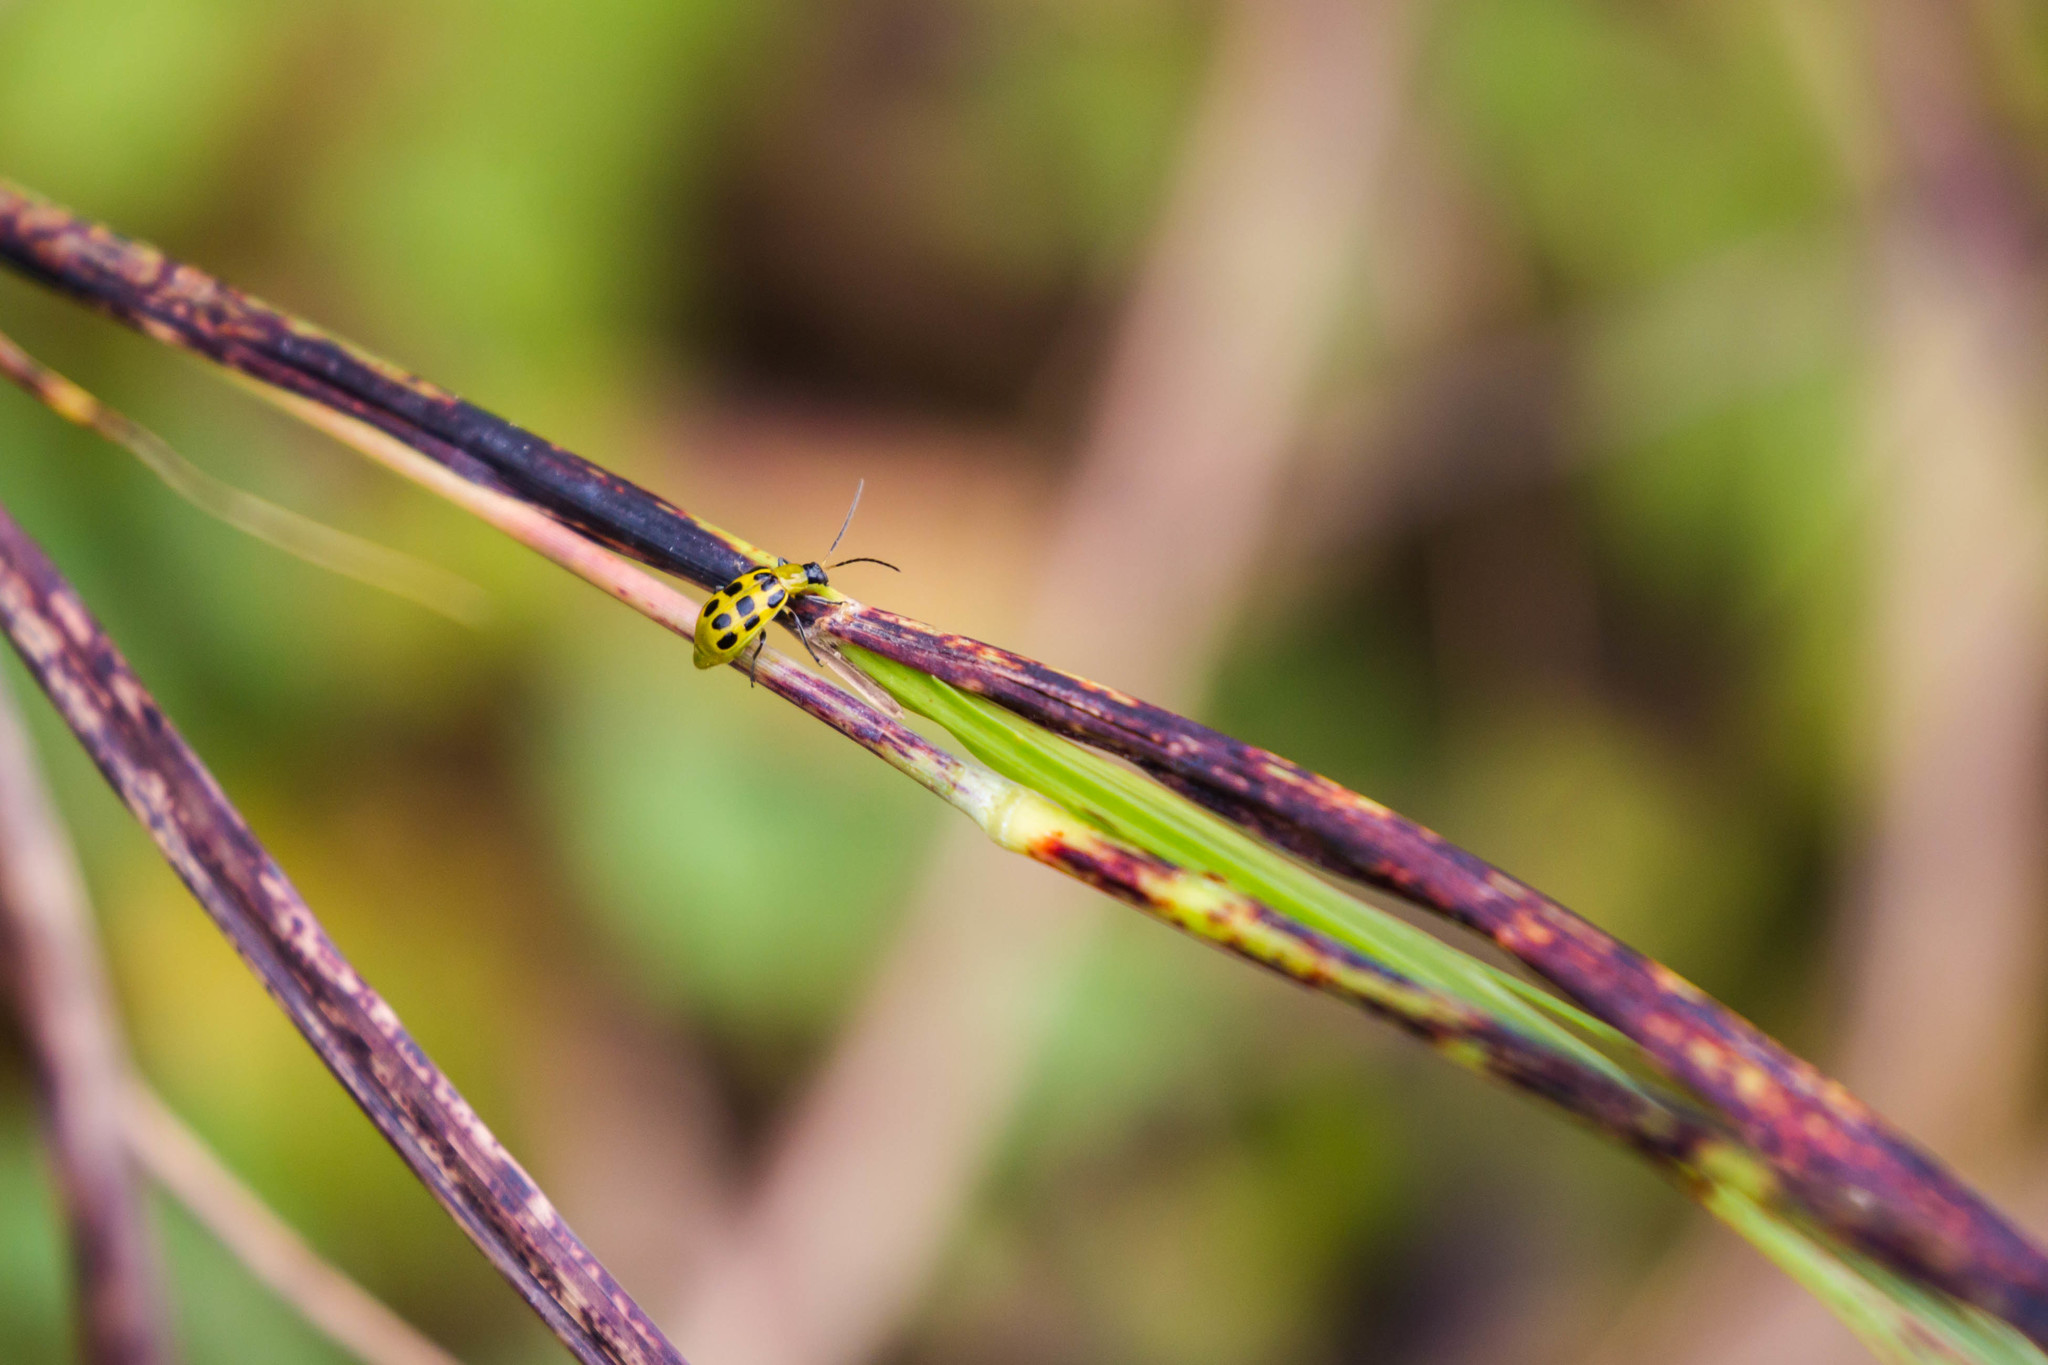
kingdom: Animalia
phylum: Arthropoda
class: Insecta
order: Coleoptera
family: Chrysomelidae
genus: Diabrotica
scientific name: Diabrotica undecimpunctata
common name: Spotted cucumber beetle
